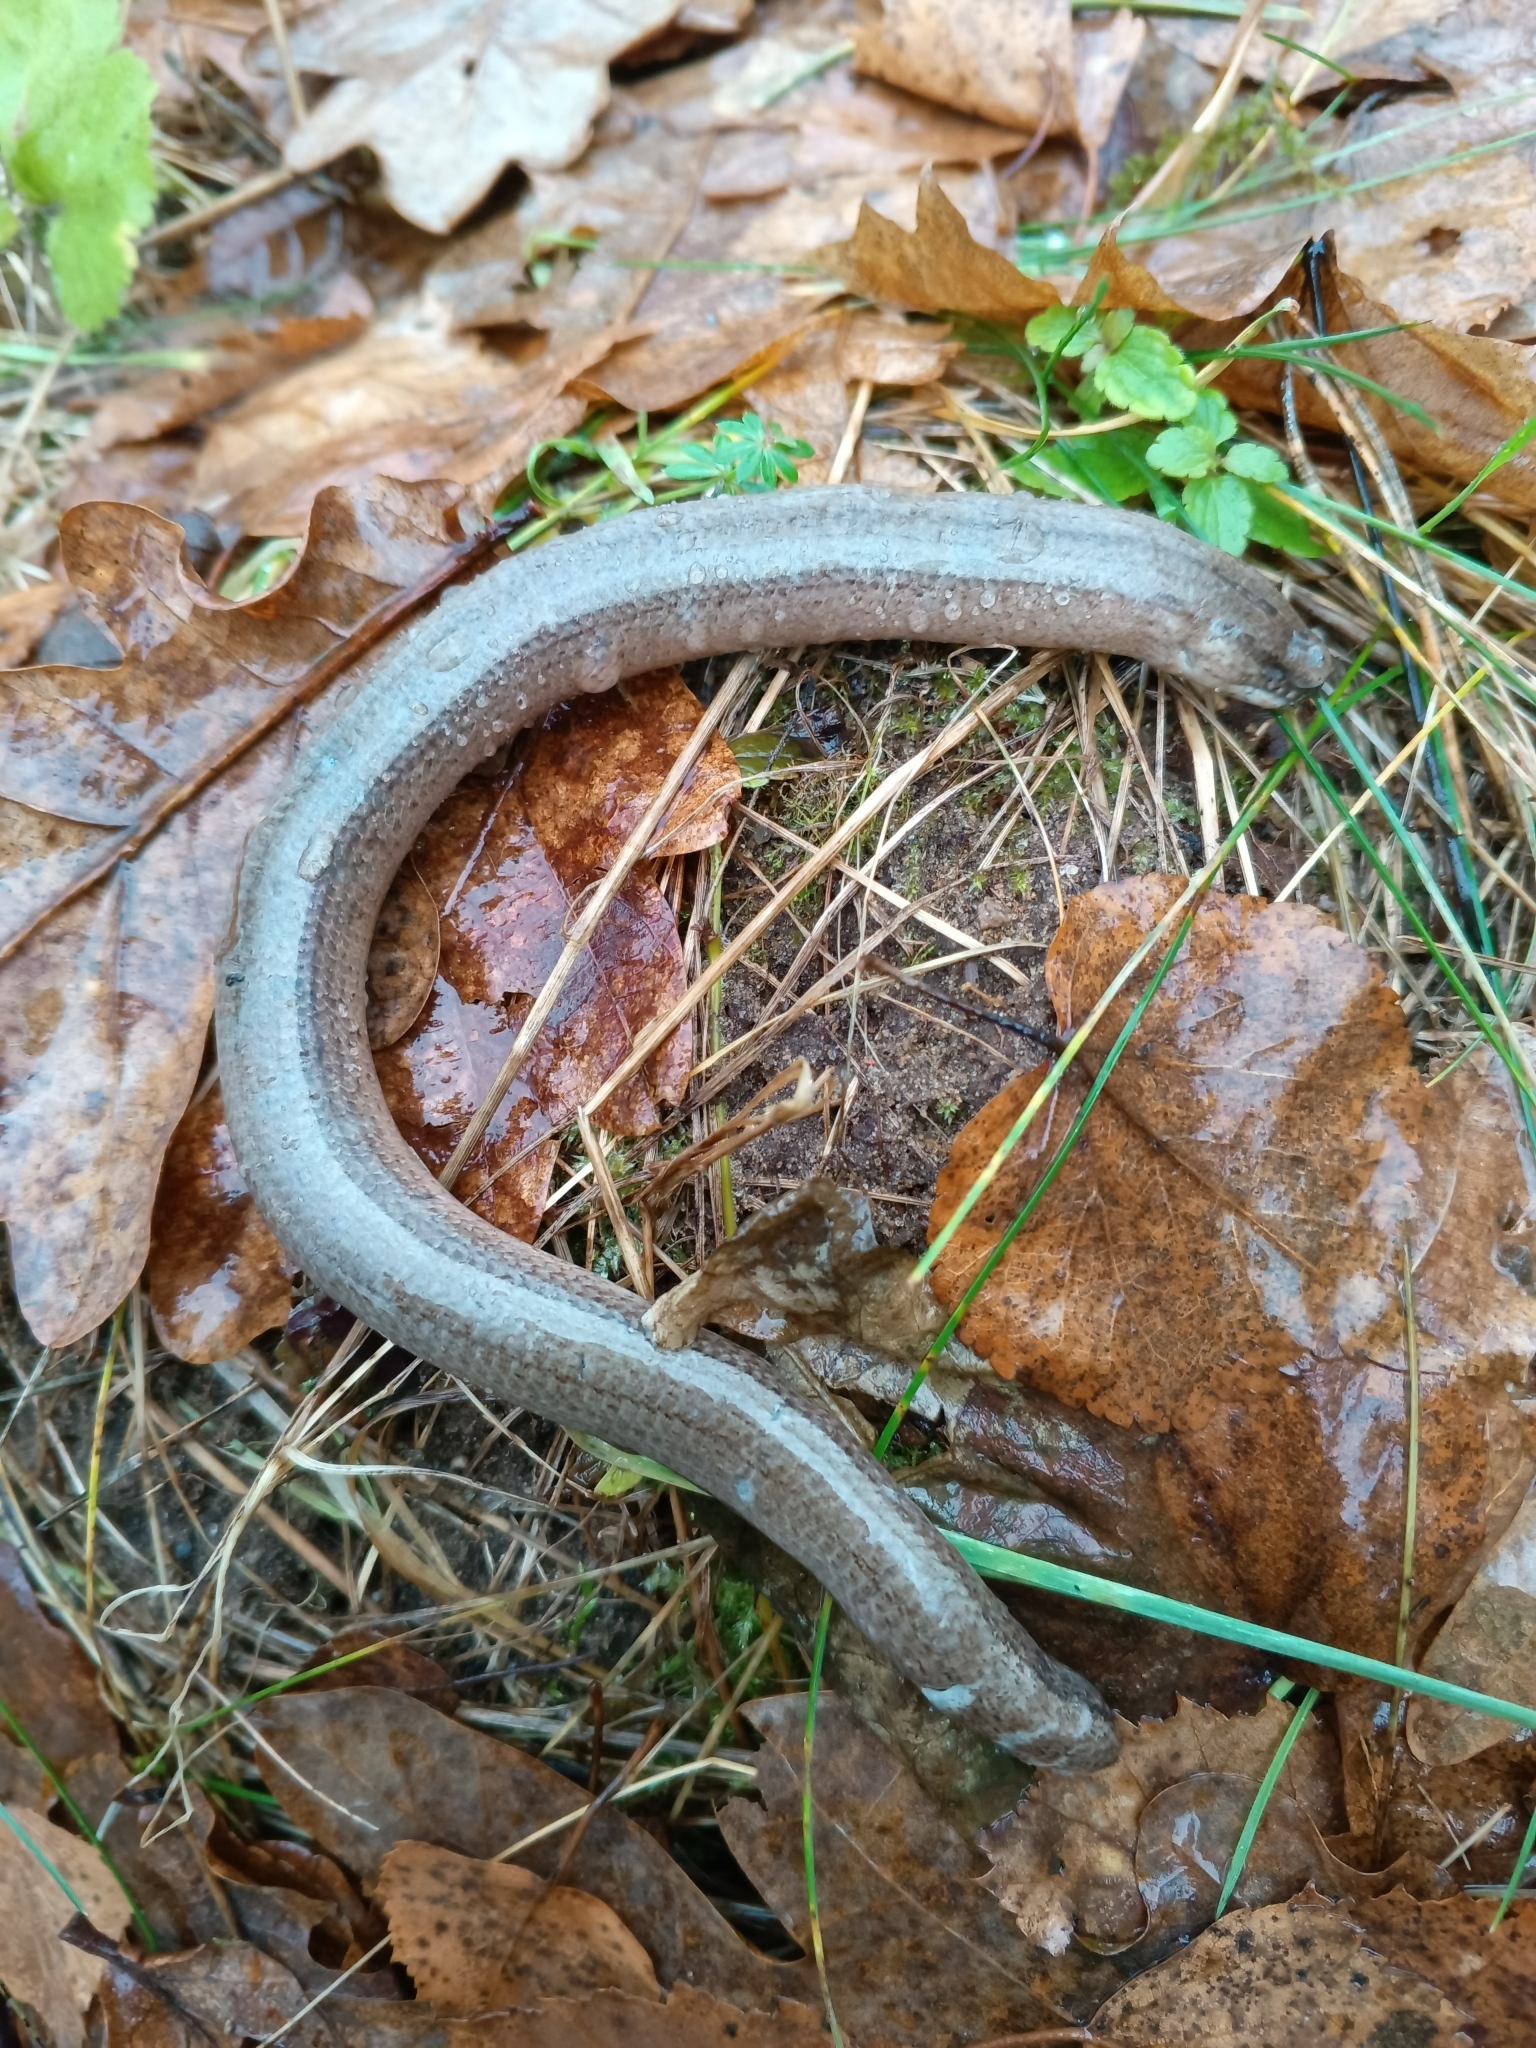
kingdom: Animalia
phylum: Chordata
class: Squamata
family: Anguidae
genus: Anguis
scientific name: Anguis fragilis
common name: Slow worm
